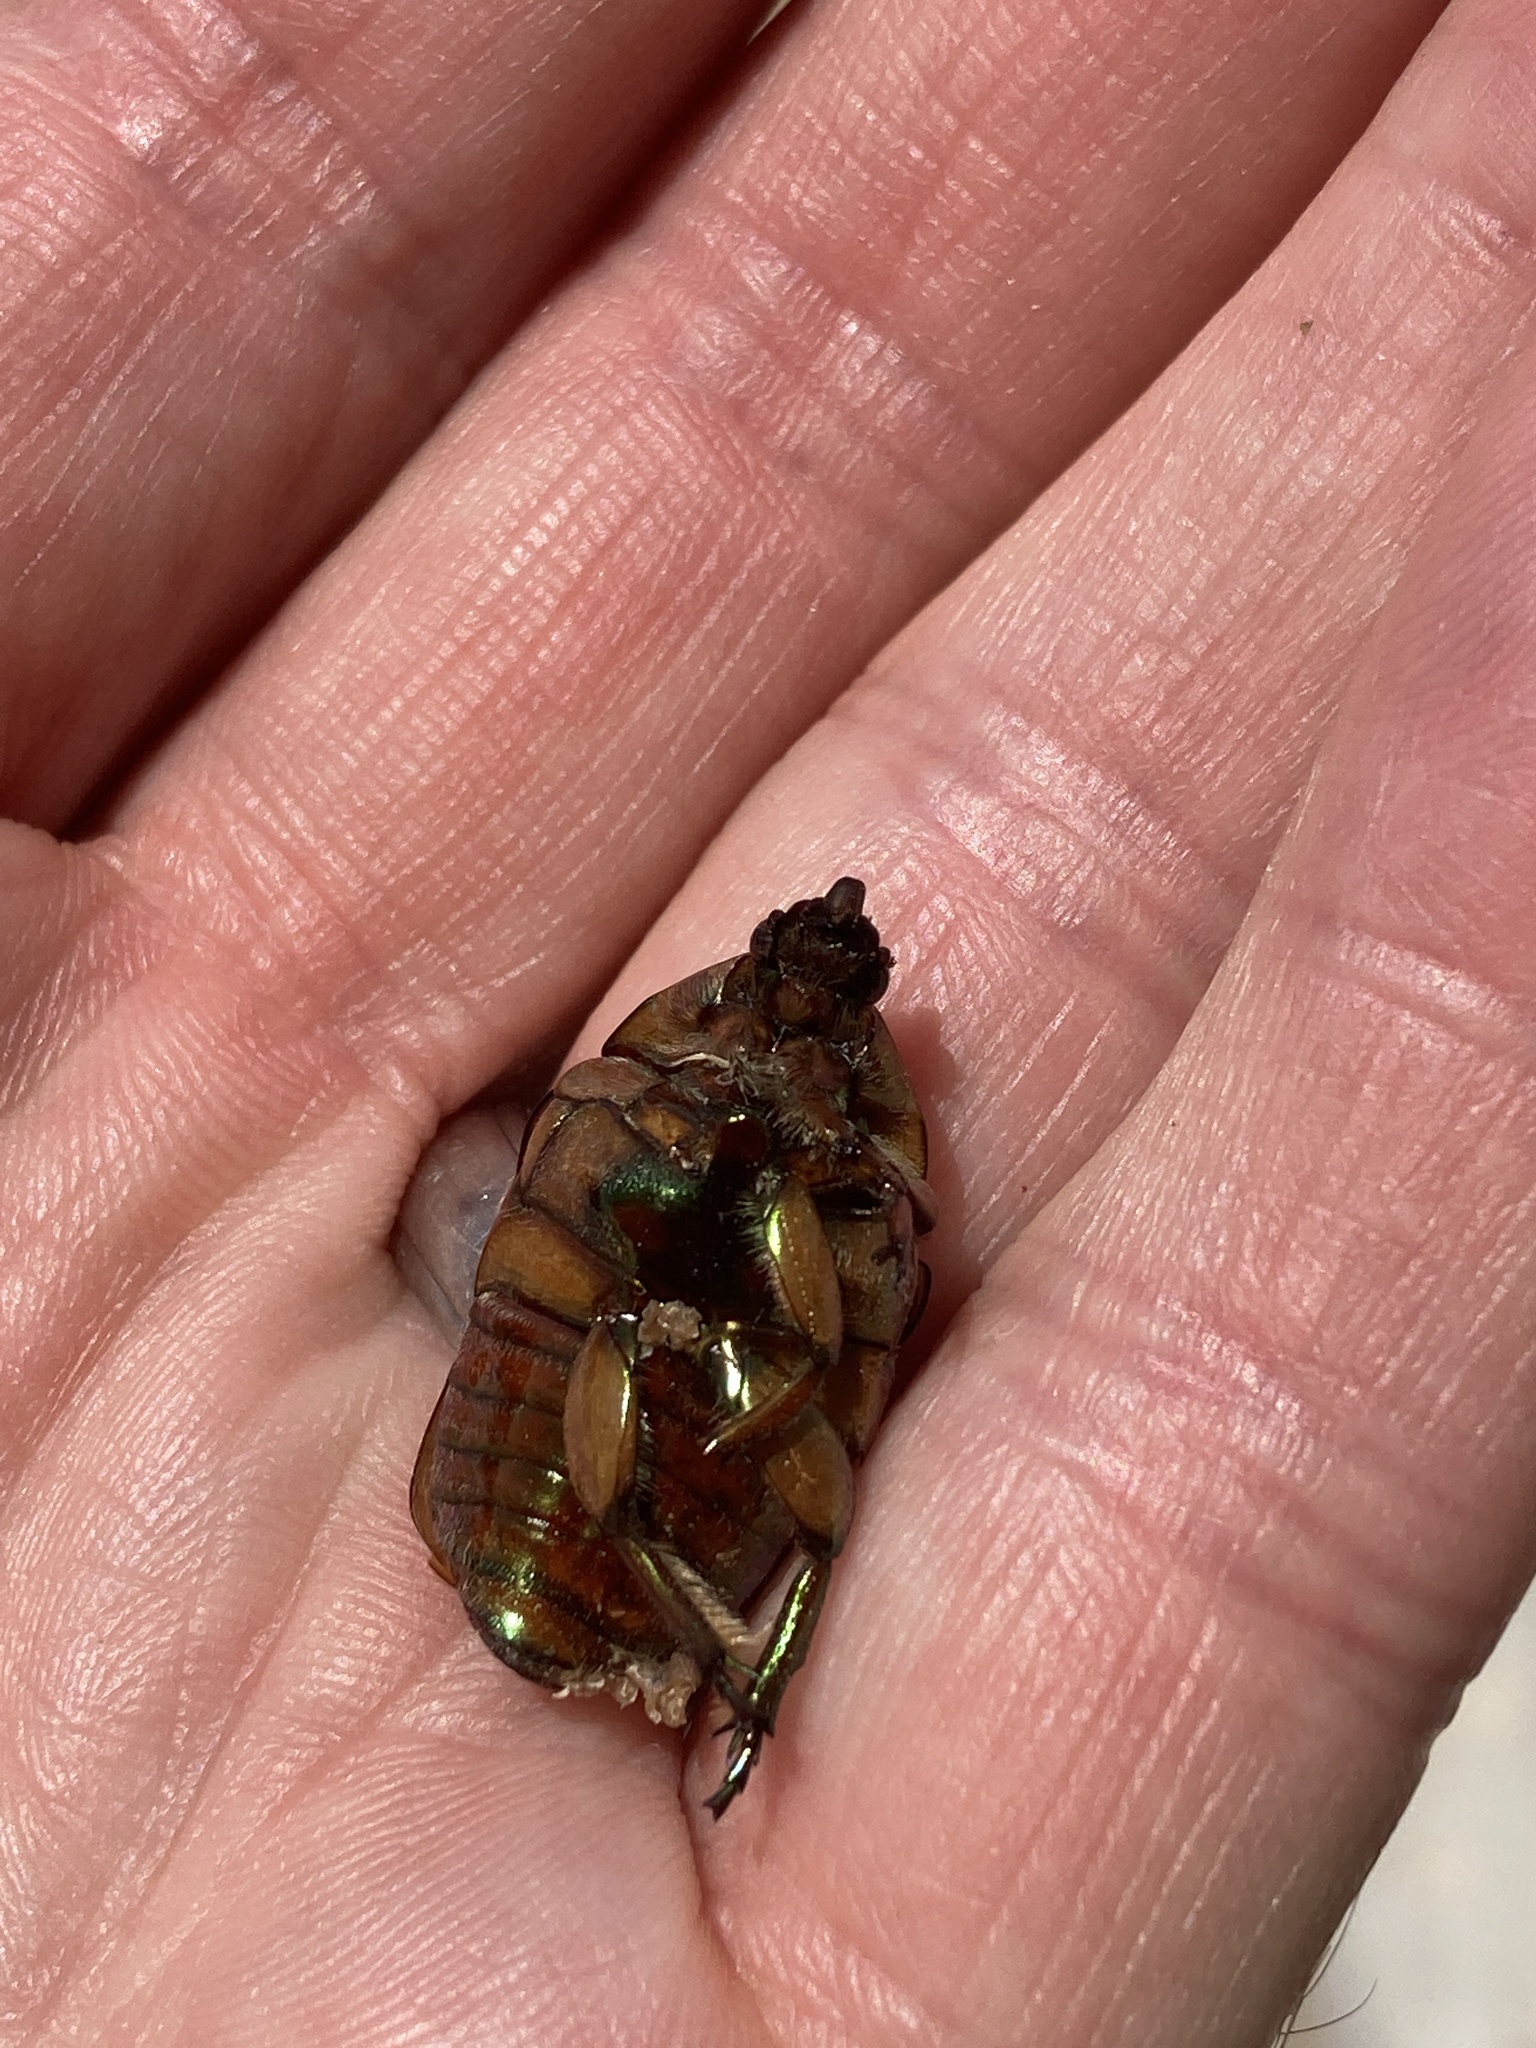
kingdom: Animalia
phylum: Arthropoda
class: Insecta
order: Coleoptera
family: Scarabaeidae
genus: Cotinis
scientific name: Cotinis nitida
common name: Common green june beetle
